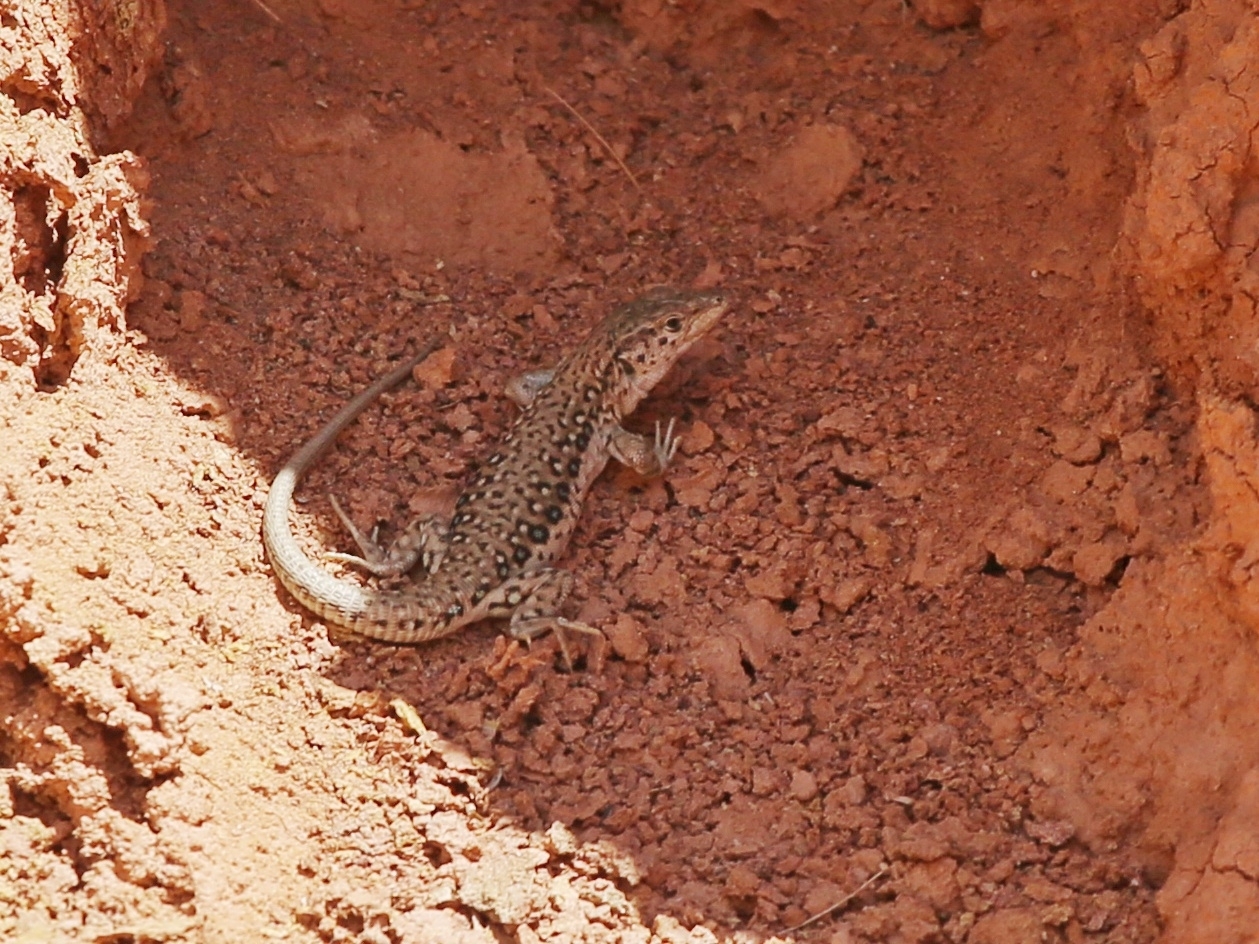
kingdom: Animalia
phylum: Chordata
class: Squamata
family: Lacertidae
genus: Eremias
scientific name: Eremias stummeri
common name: Stummer’s racerunner
